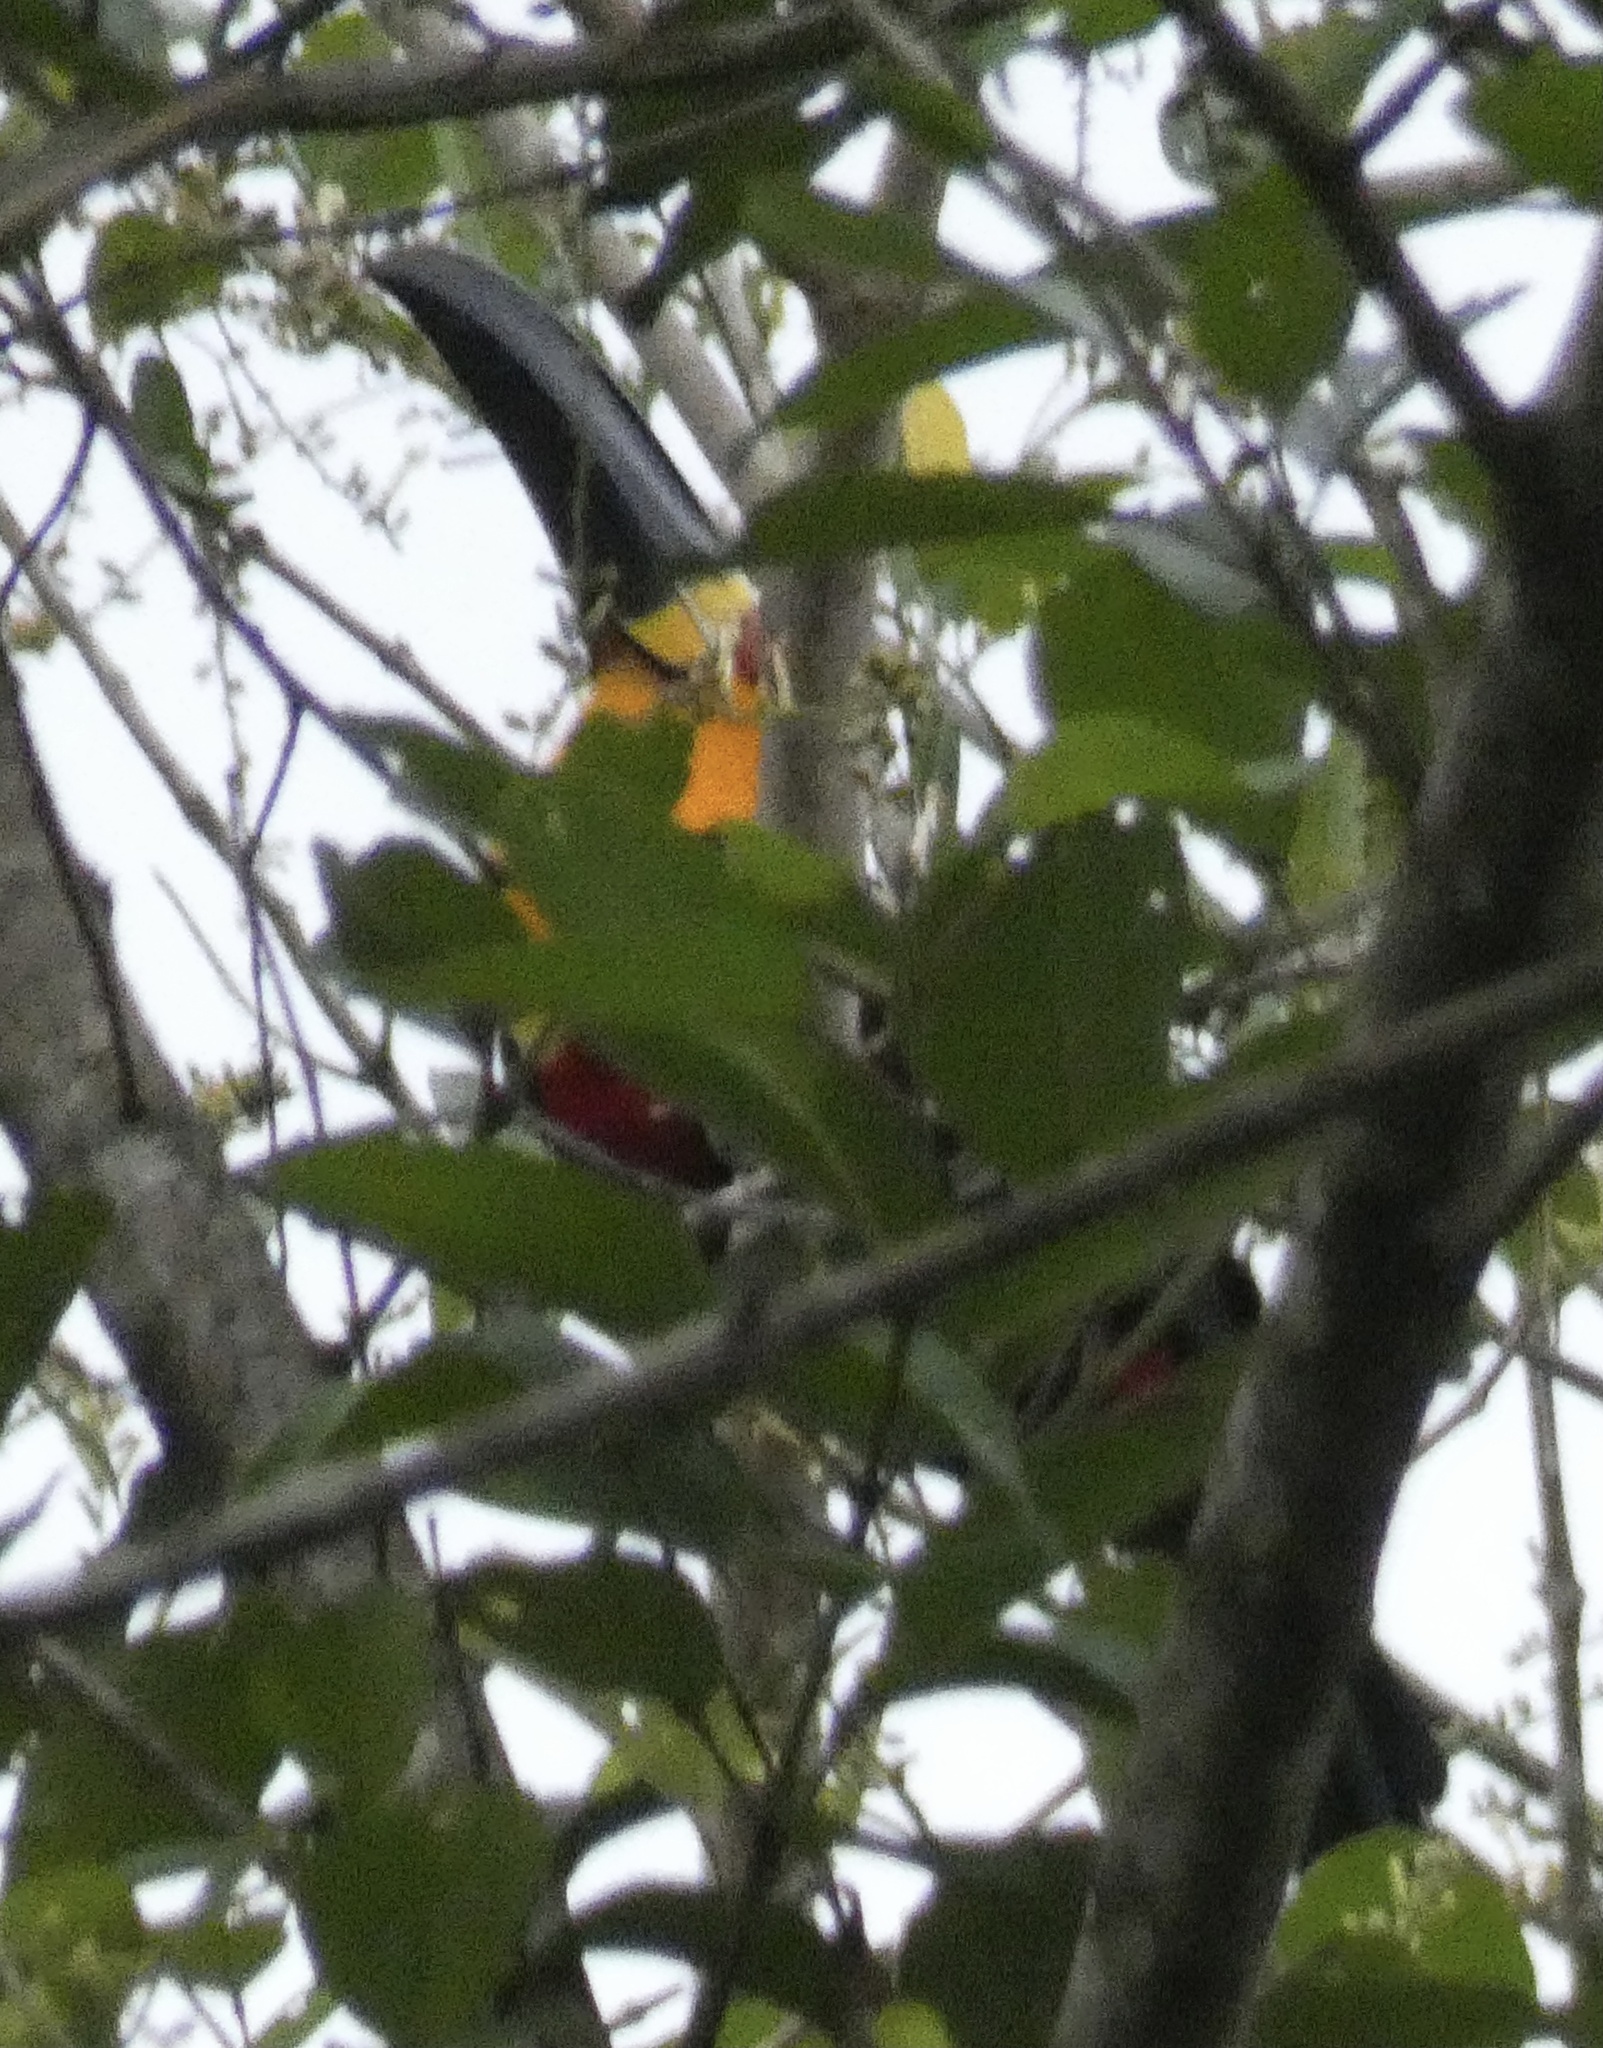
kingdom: Animalia
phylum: Chordata
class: Aves
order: Piciformes
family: Ramphastidae
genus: Ramphastos
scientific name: Ramphastos vitellinus
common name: Channel-billed toucan
